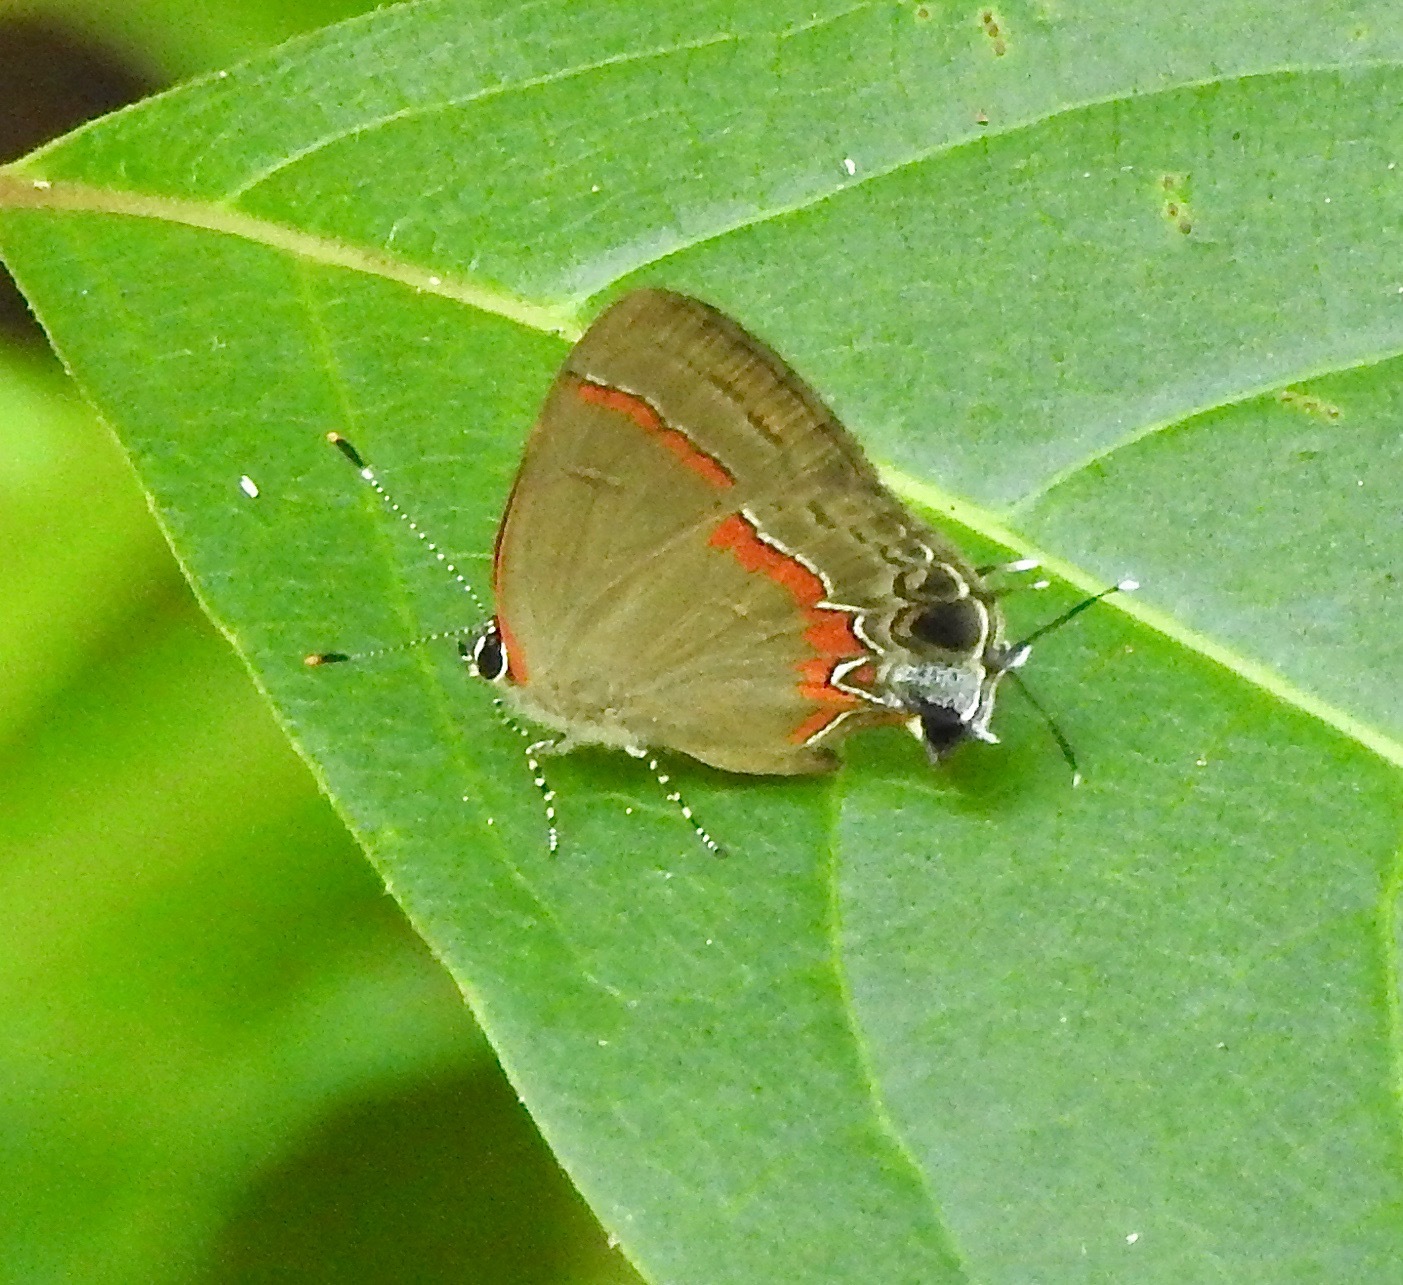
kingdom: Animalia
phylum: Arthropoda
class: Insecta
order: Lepidoptera
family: Lycaenidae
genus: Calycopis
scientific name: Calycopis cecrops
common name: Red-banded hairstreak
